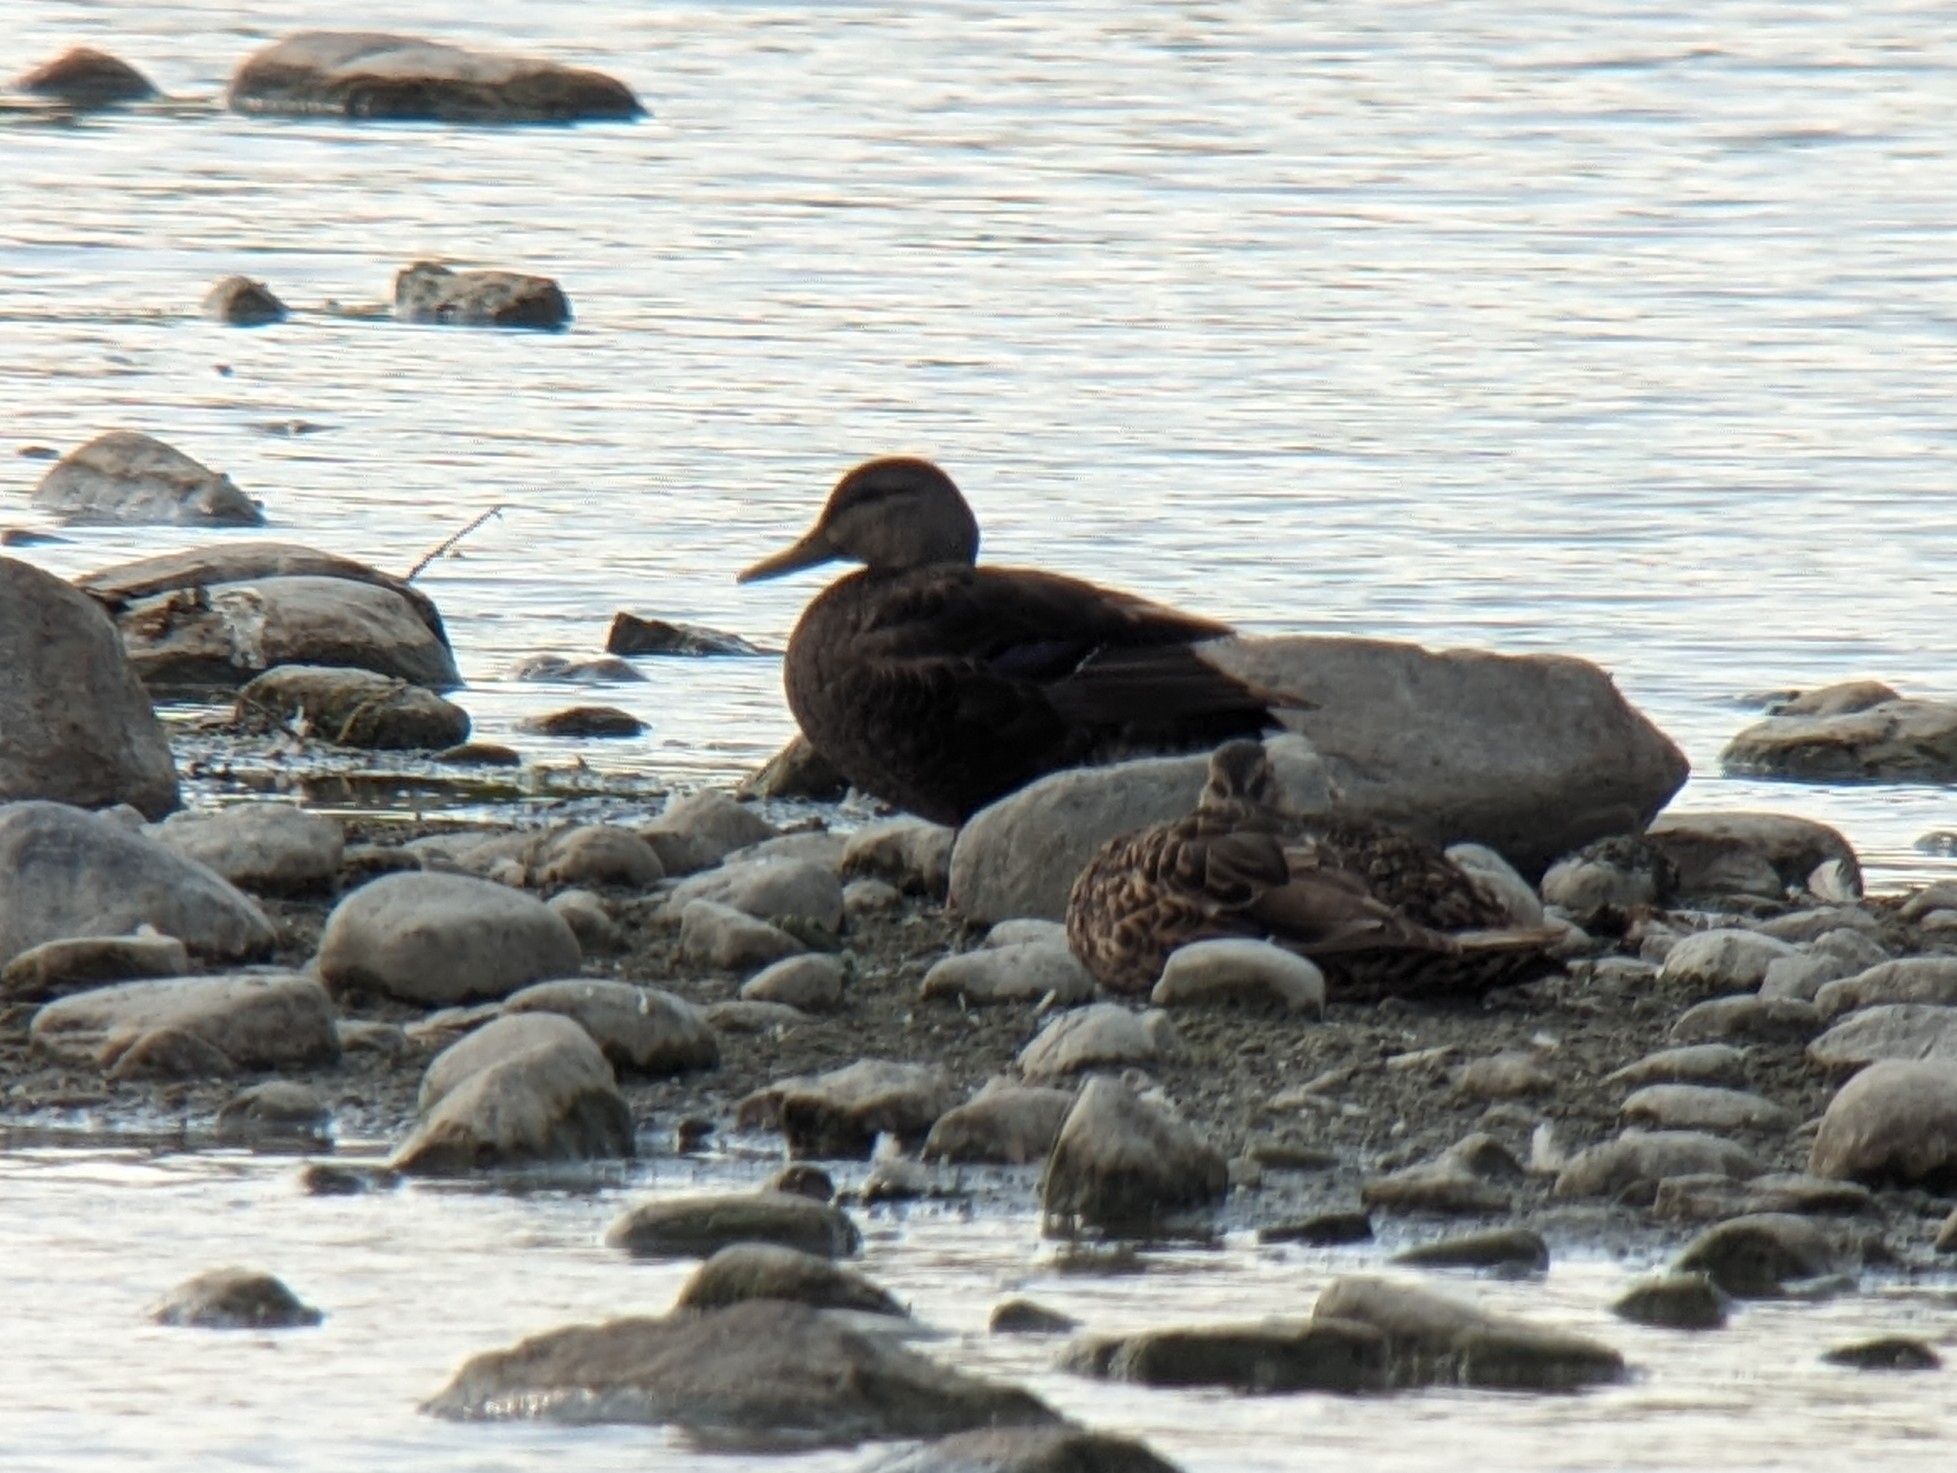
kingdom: Animalia
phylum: Chordata
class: Aves
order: Anseriformes
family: Anatidae
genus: Anas
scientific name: Anas rubripes
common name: American black duck
